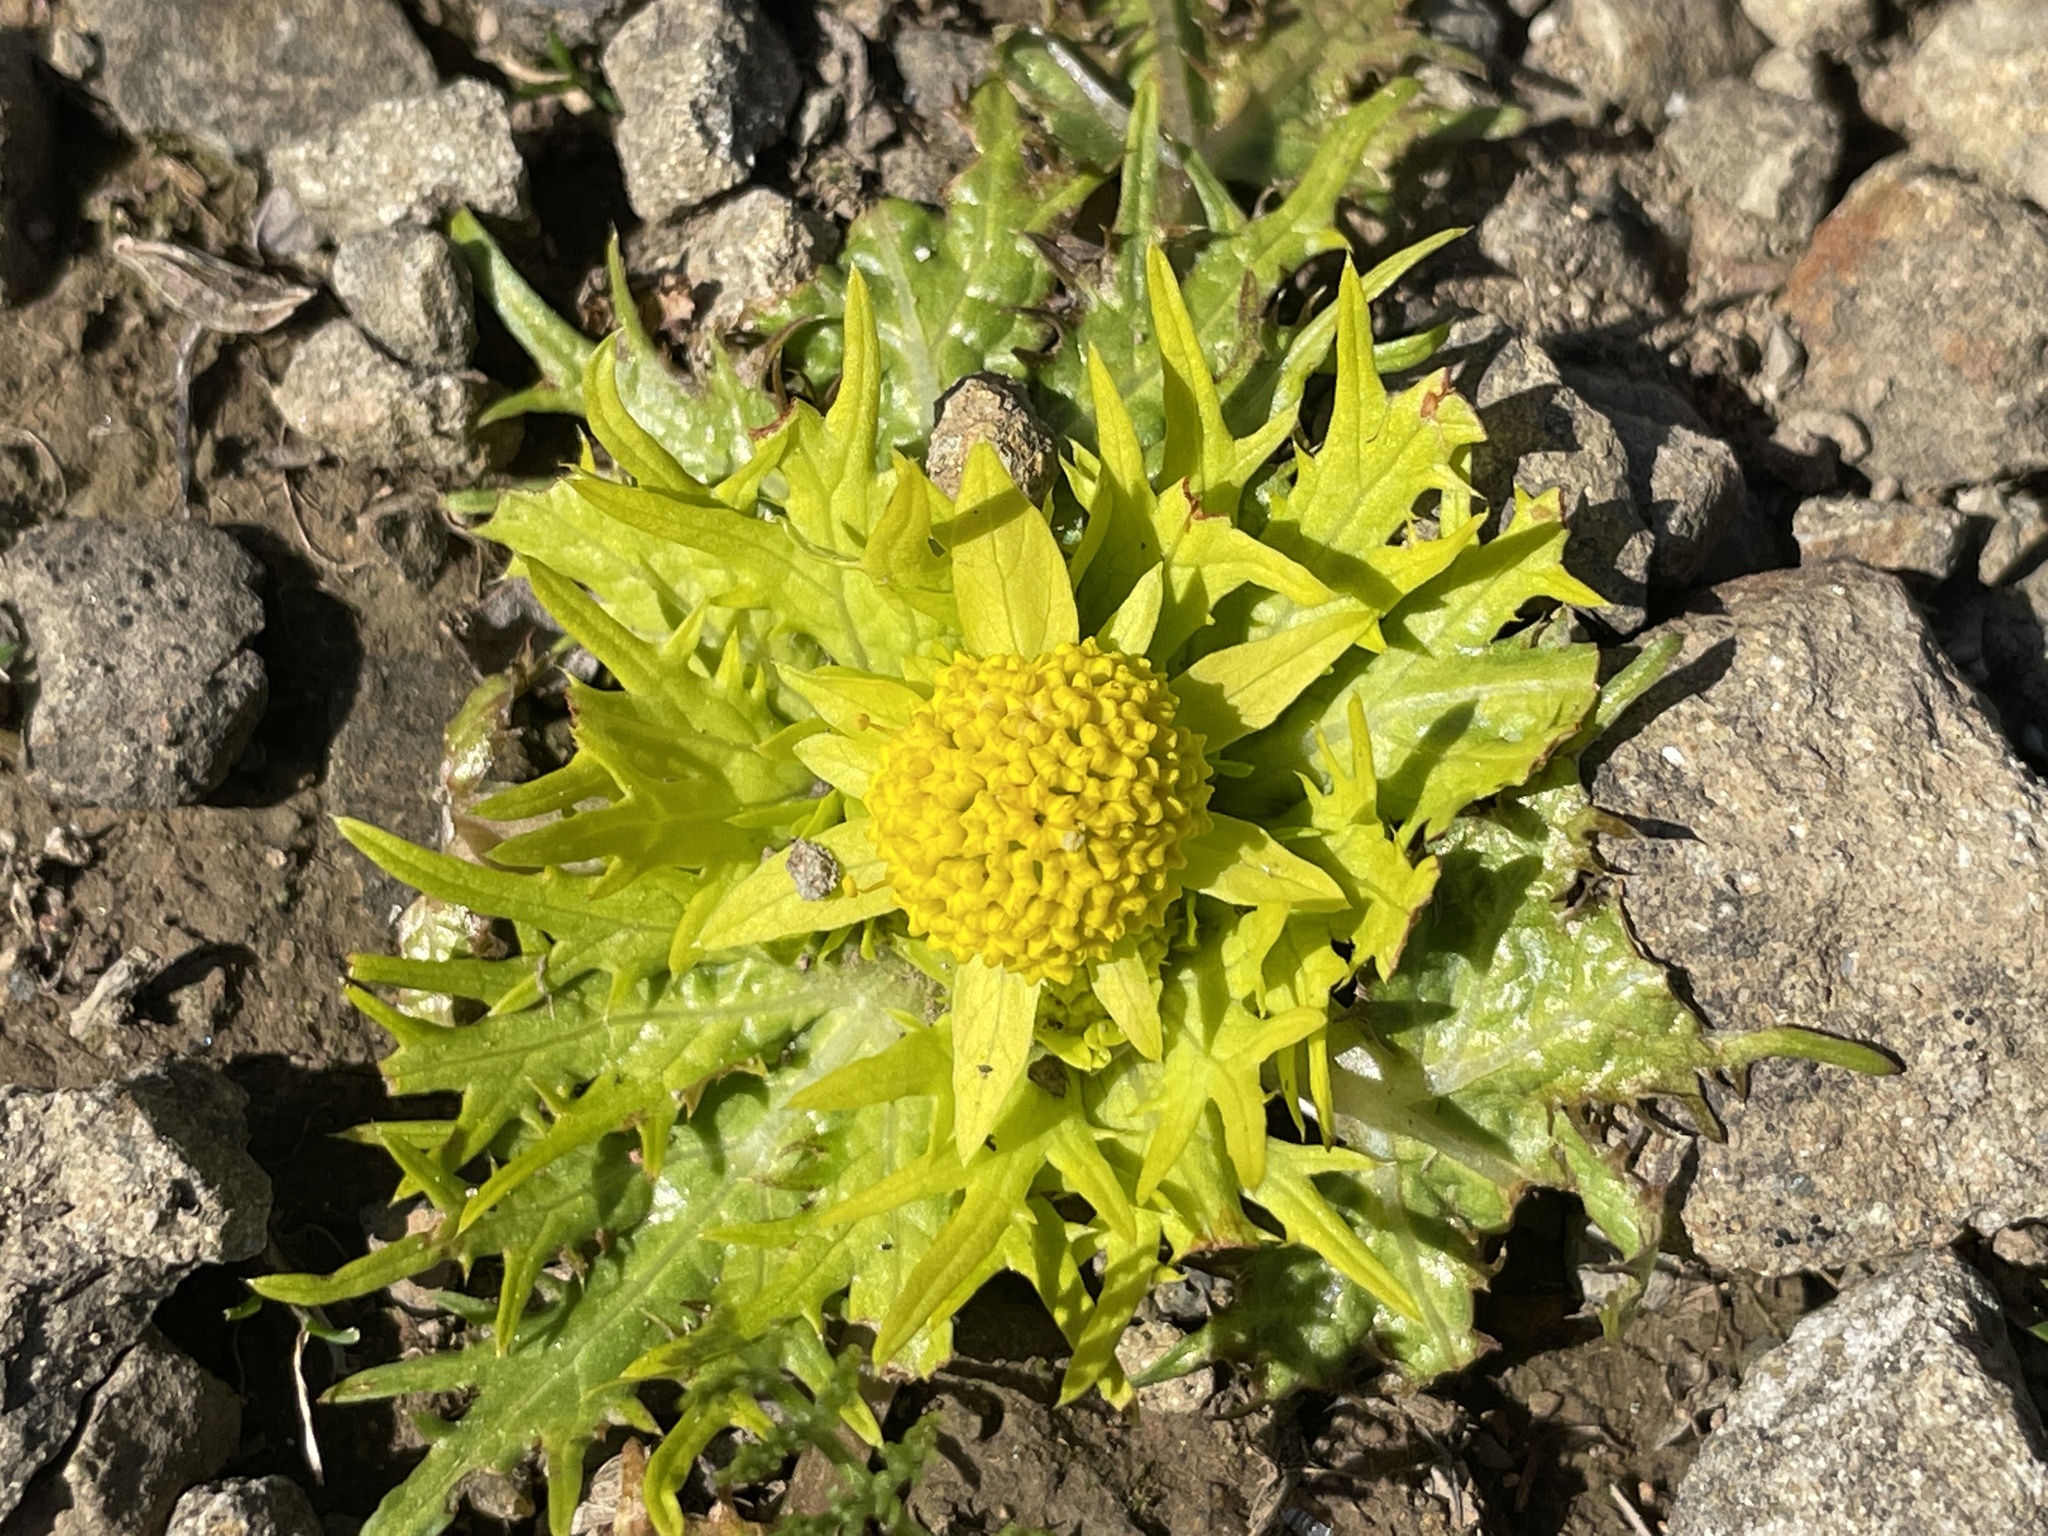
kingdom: Plantae
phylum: Tracheophyta
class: Magnoliopsida
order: Apiales
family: Apiaceae
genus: Sanicula
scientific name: Sanicula arctopoides
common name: Footsteps-of-spring
